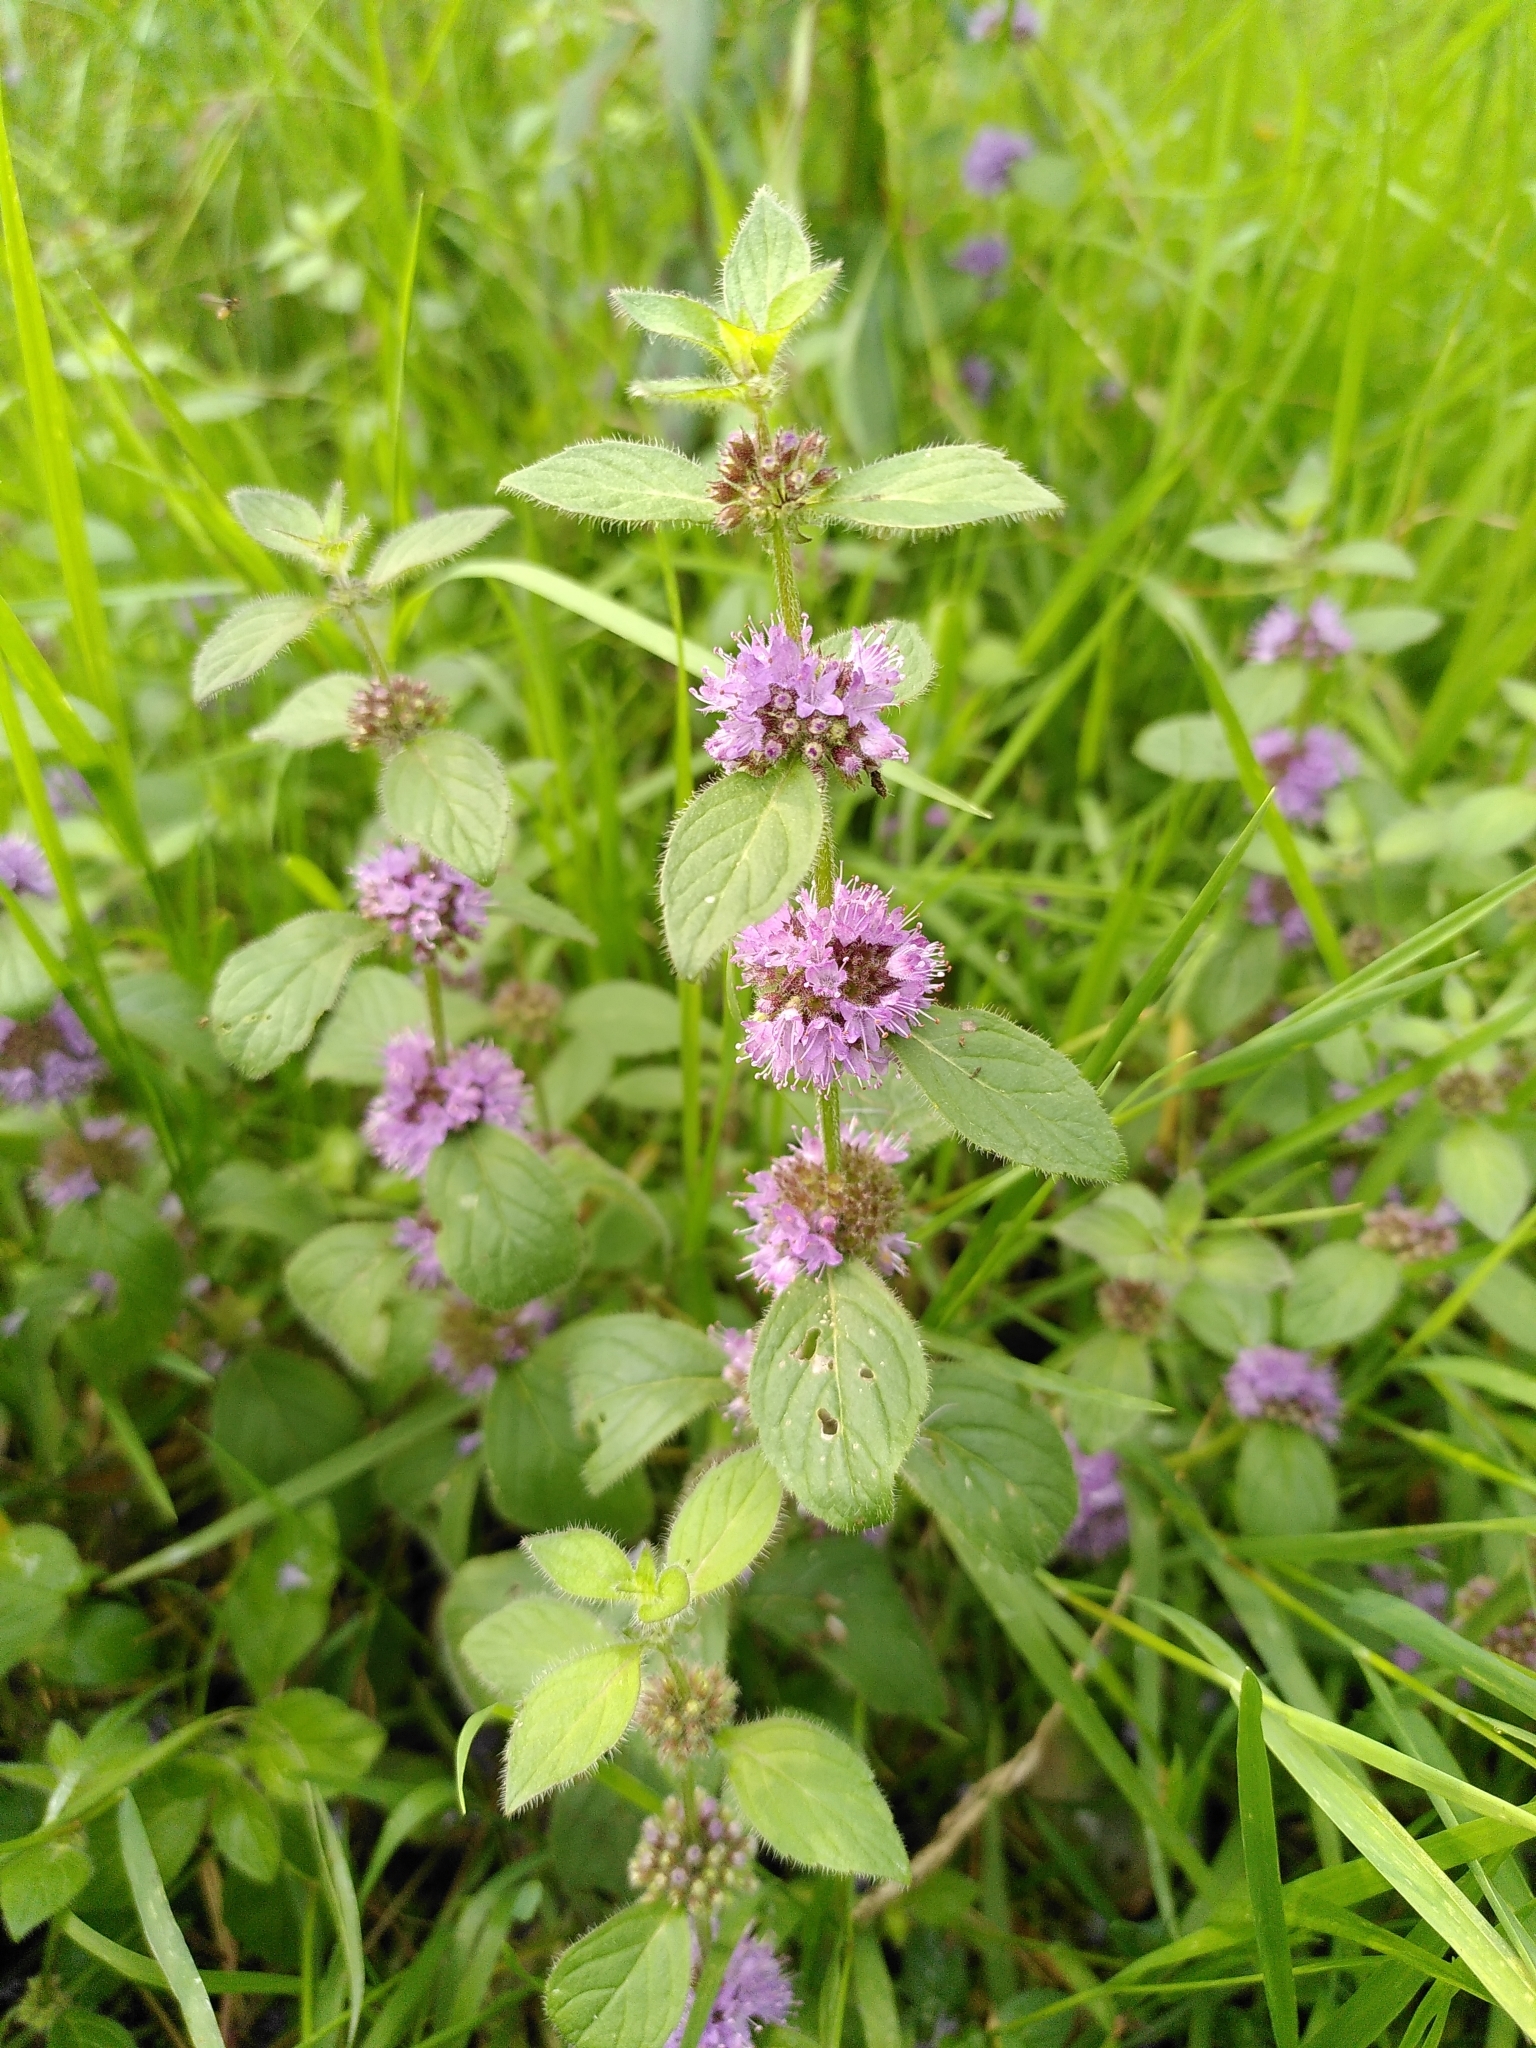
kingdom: Plantae
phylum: Tracheophyta
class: Magnoliopsida
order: Lamiales
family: Lamiaceae
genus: Mentha
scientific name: Mentha arvensis
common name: Corn mint
